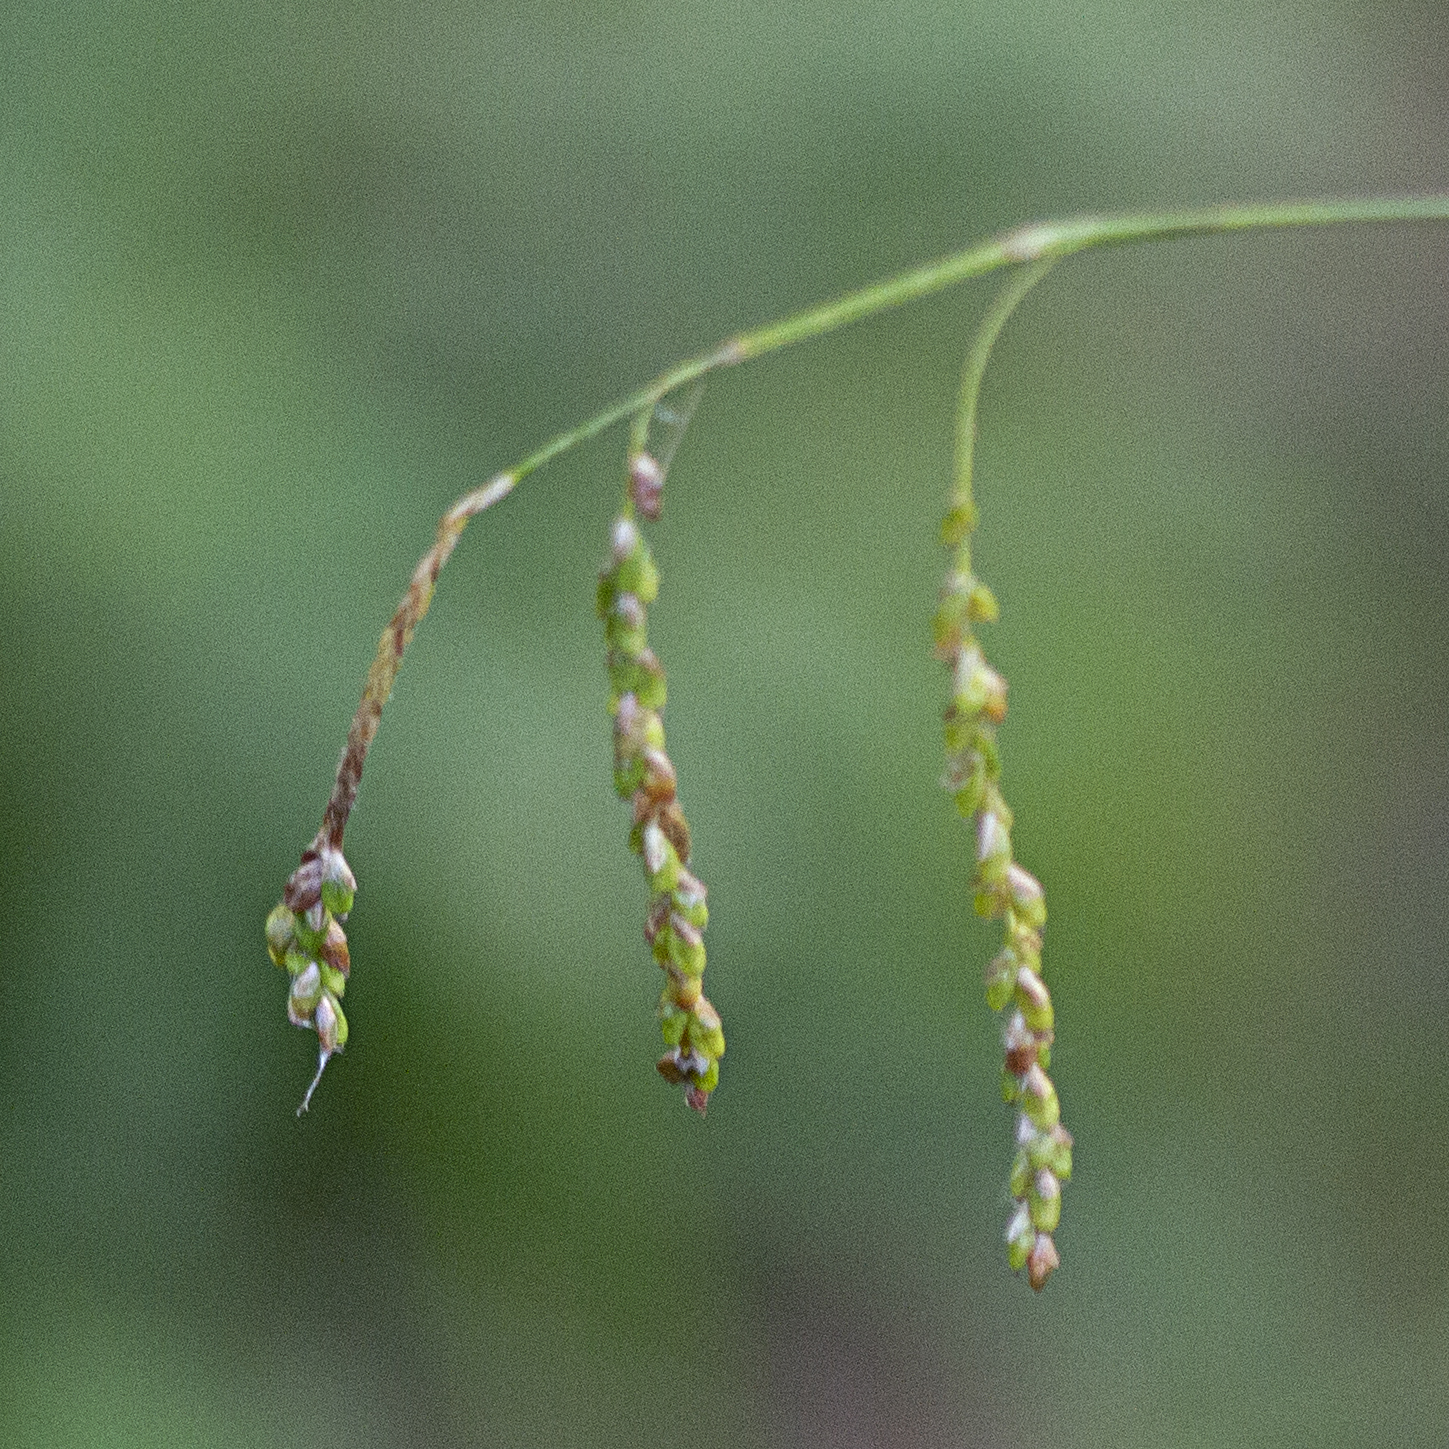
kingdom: Plantae
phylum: Tracheophyta
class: Liliopsida
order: Poales
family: Cyperaceae
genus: Carex
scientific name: Carex gracillima
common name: Graceful sedge
